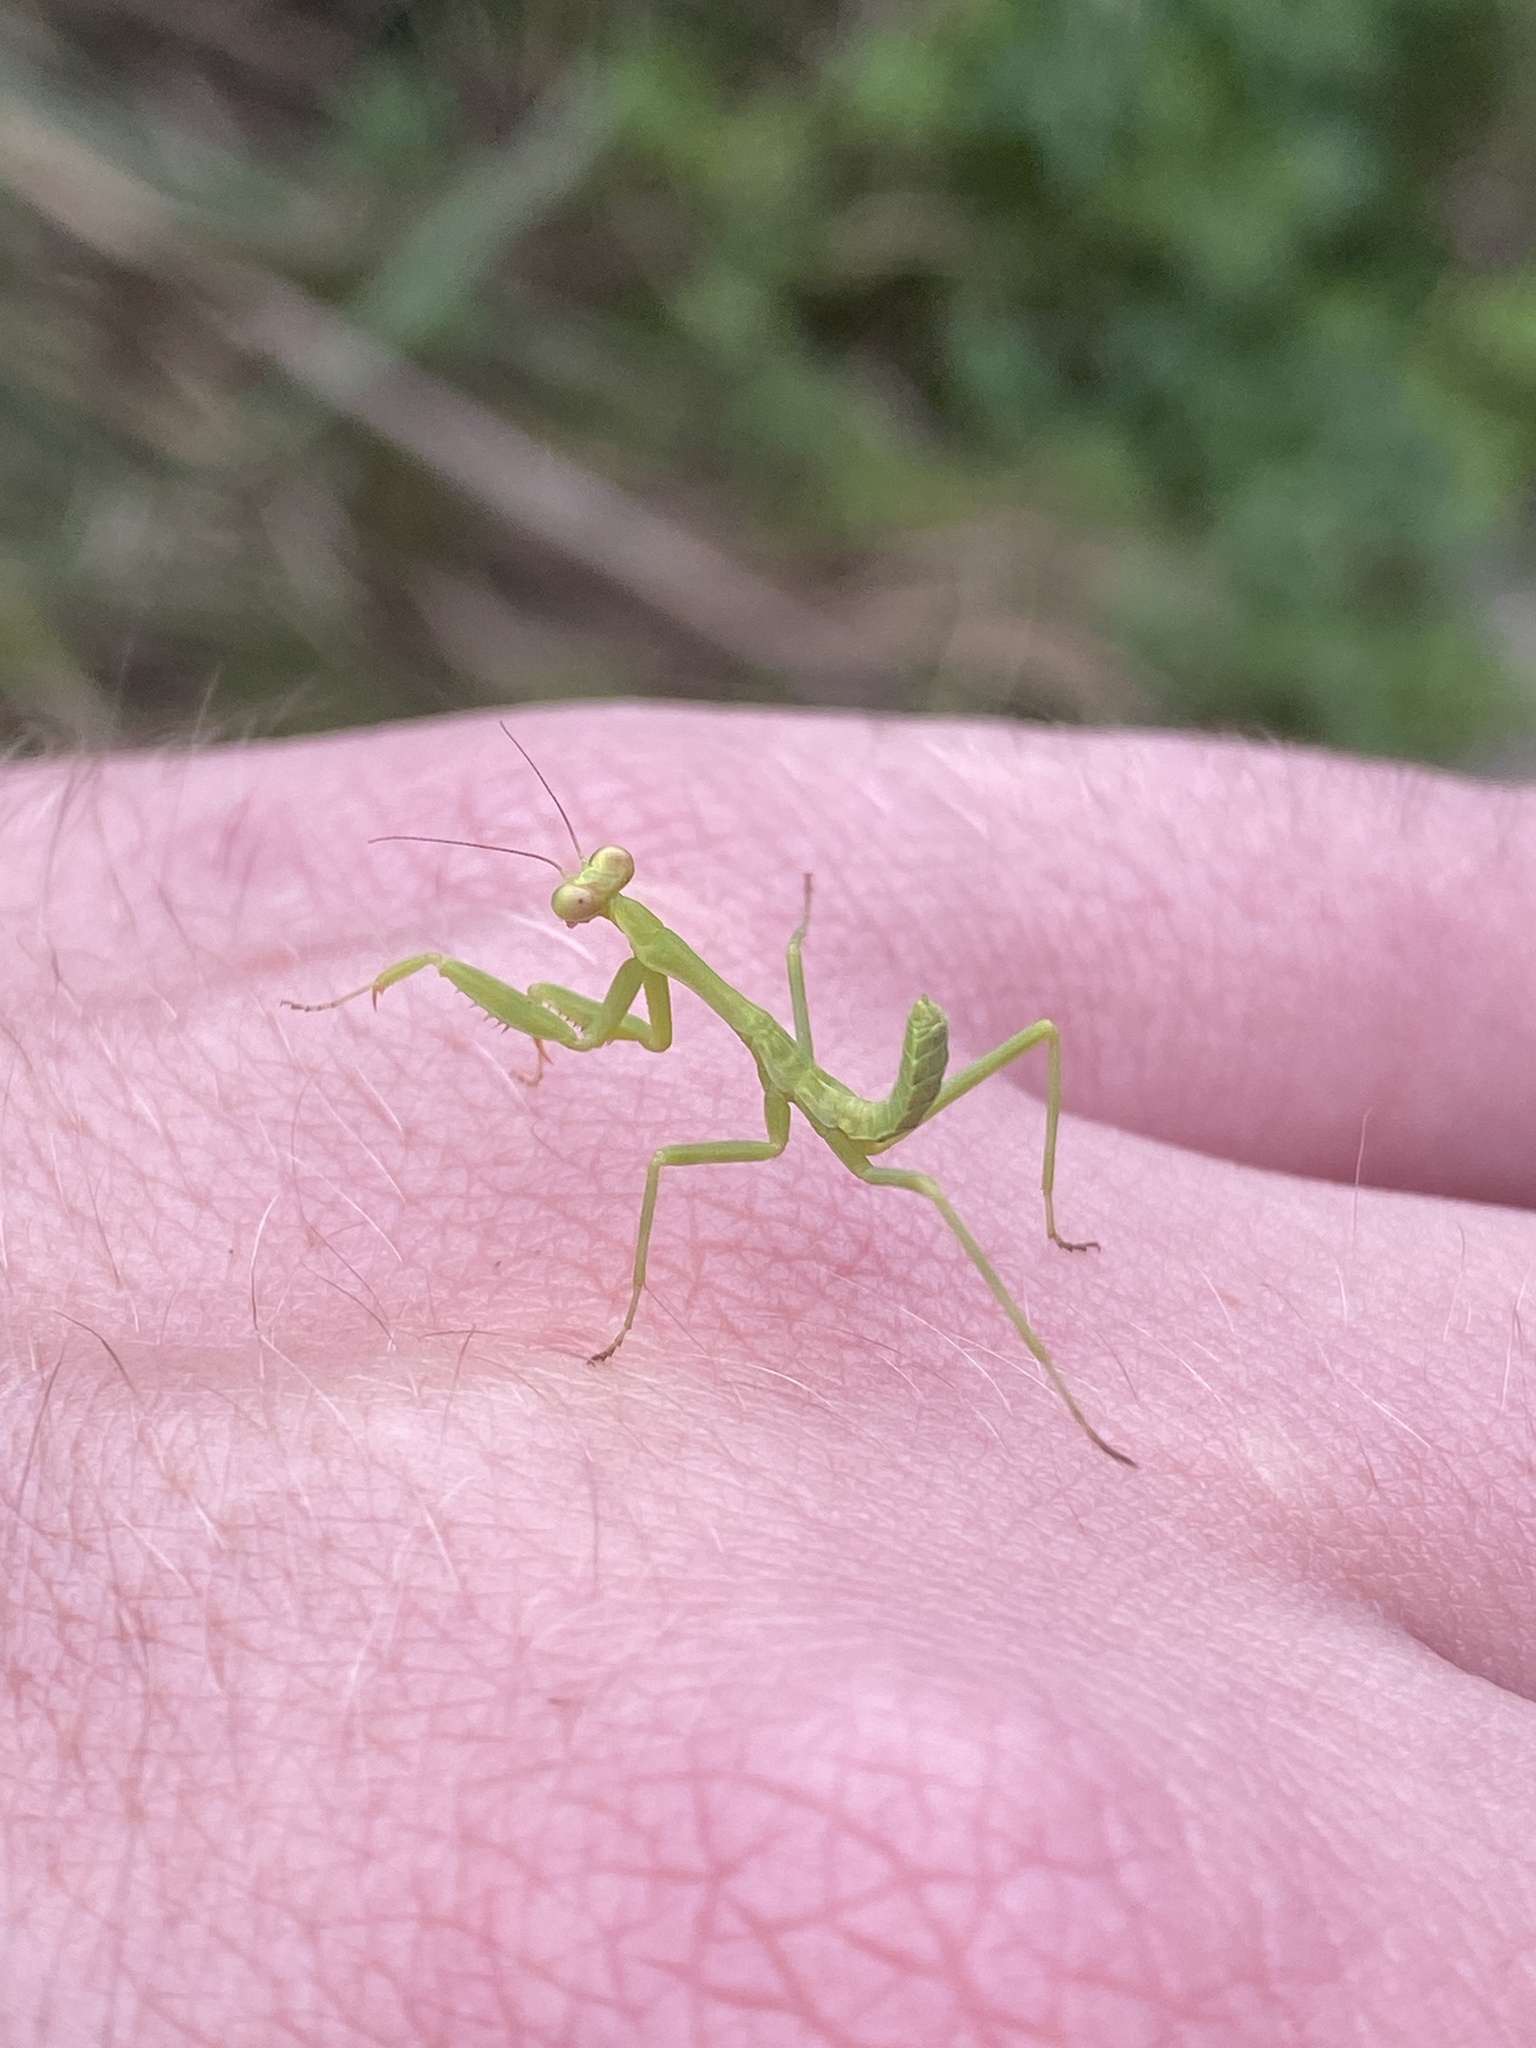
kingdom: Animalia
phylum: Arthropoda
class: Insecta
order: Mantodea
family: Mantidae
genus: Stagmatoptera
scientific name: Stagmatoptera hyaloptera
